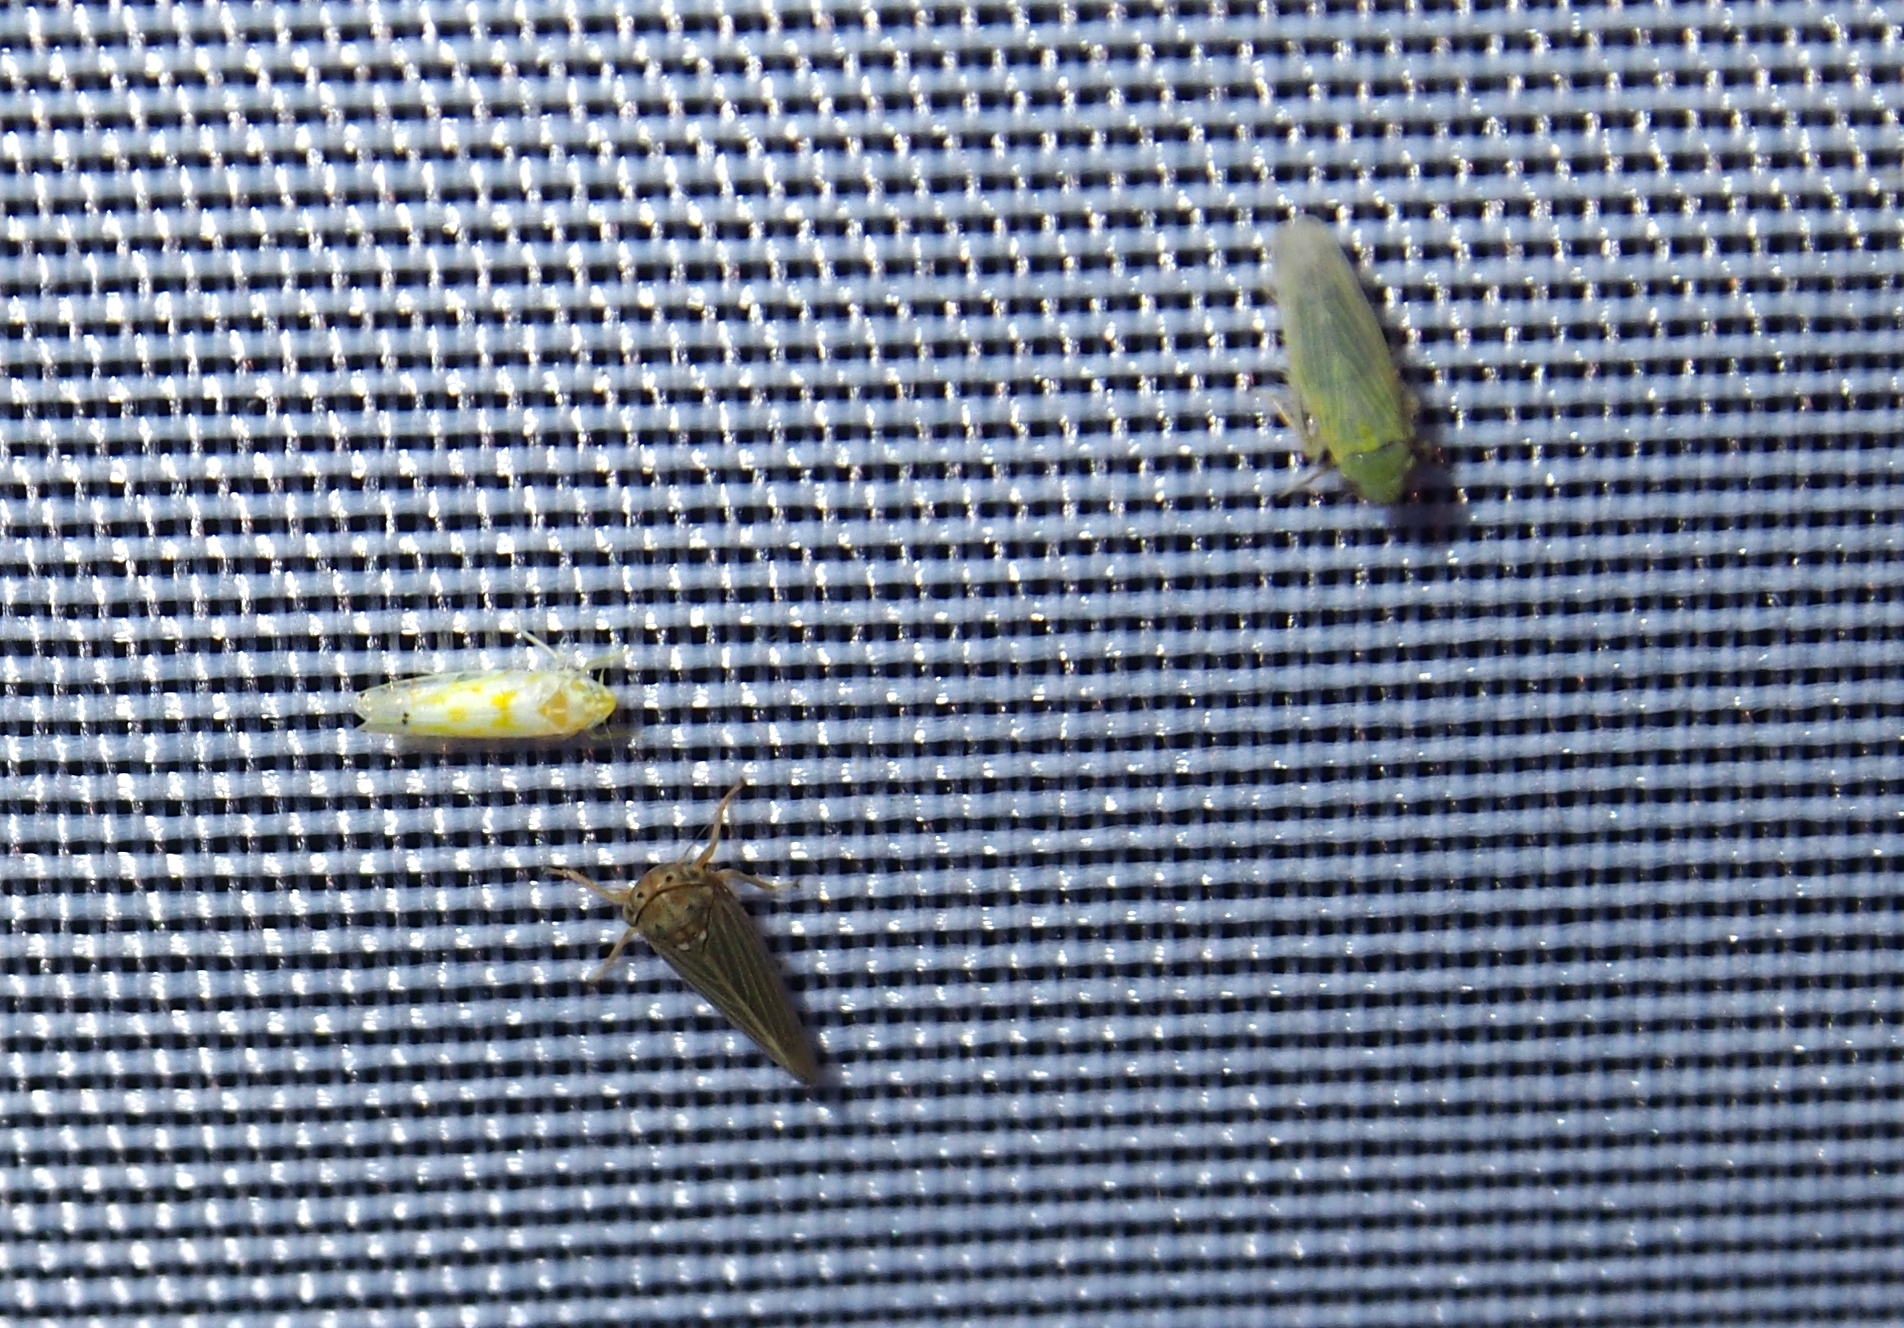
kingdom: Animalia
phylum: Arthropoda
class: Insecta
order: Hemiptera
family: Cicadellidae
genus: Graminella
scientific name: Graminella nigrifrons
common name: Blackfaced leafhopper
